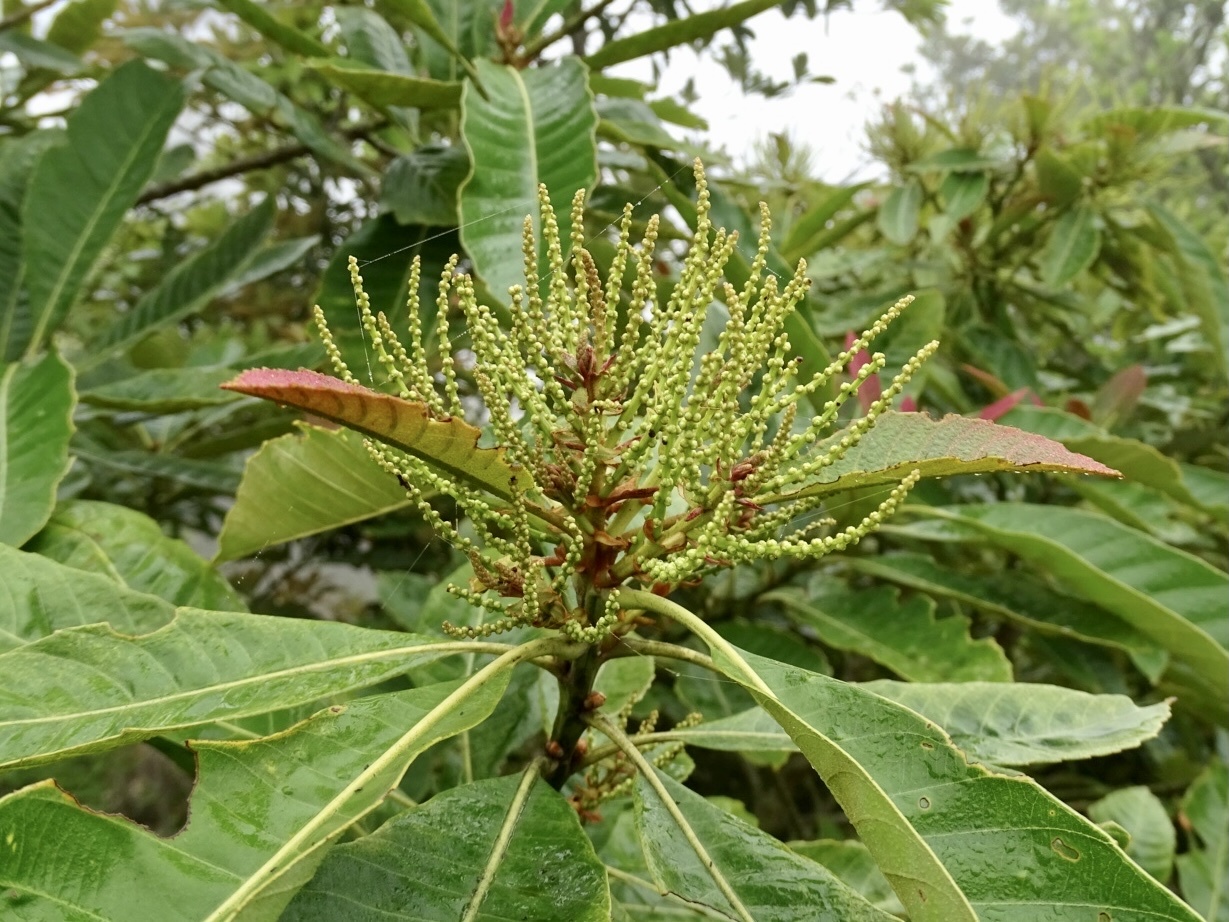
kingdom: Plantae
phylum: Tracheophyta
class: Magnoliopsida
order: Fagales
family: Fagaceae
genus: Castanopsis
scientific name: Castanopsis fissa
